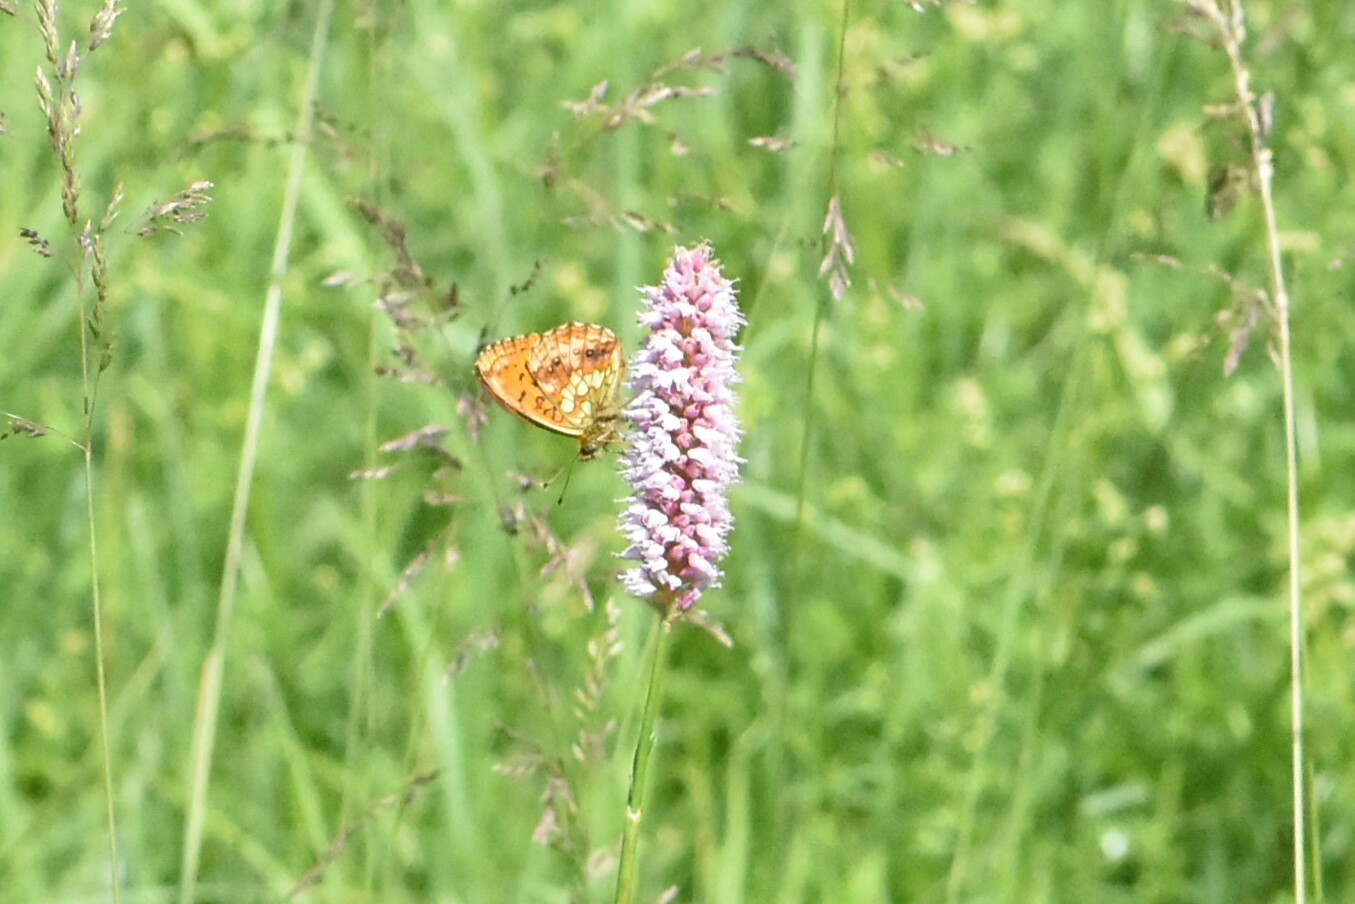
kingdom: Animalia
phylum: Arthropoda
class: Insecta
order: Lepidoptera
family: Nymphalidae
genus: Brenthis
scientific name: Brenthis ino
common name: Lesser marbled fritillary
